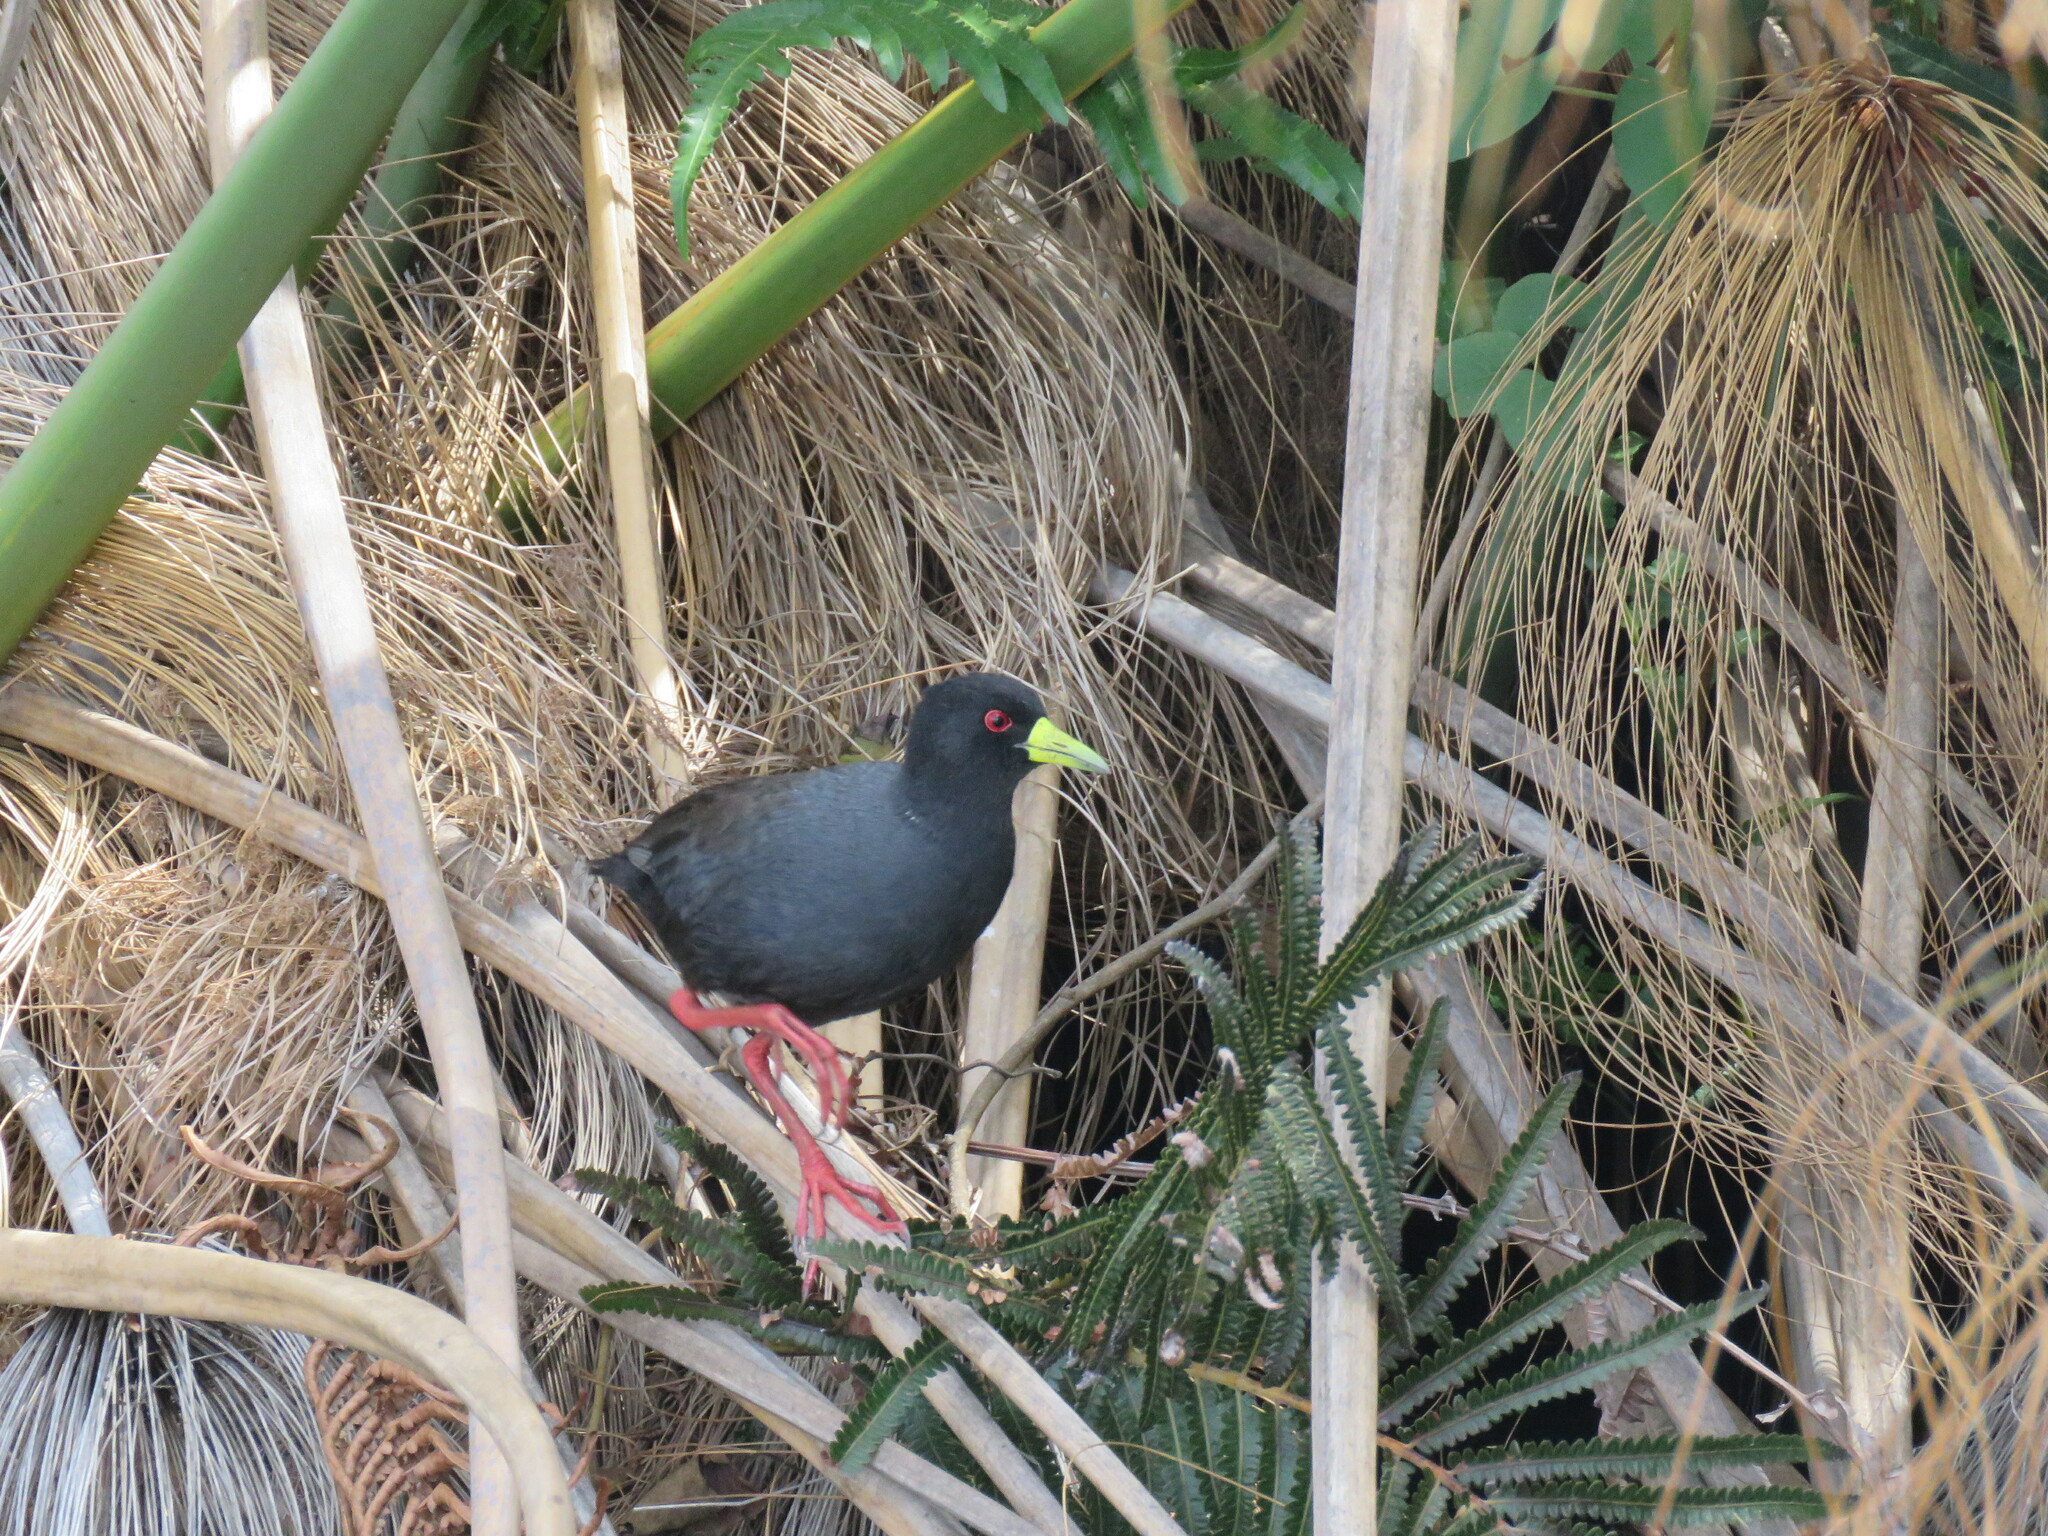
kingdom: Animalia
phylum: Chordata
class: Aves
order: Gruiformes
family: Rallidae
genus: Amaurornis
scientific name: Amaurornis flavirostra
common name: Black crake
